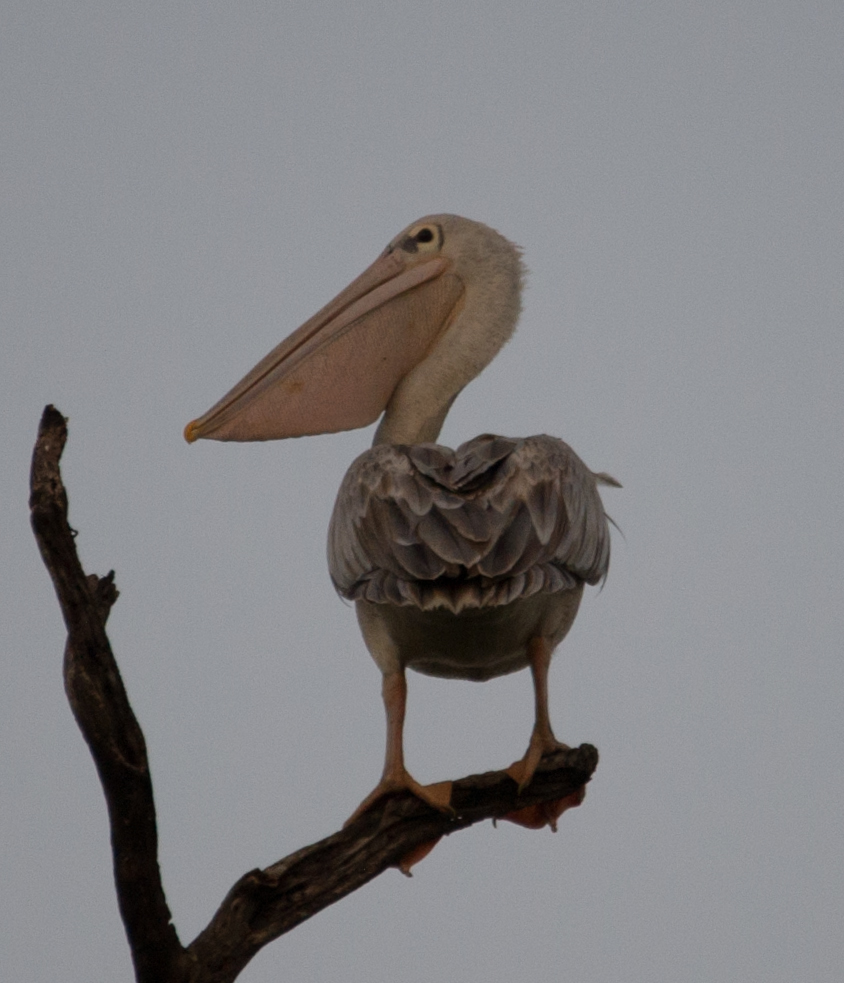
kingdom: Animalia
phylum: Chordata
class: Aves
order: Pelecaniformes
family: Pelecanidae
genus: Pelecanus
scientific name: Pelecanus rufescens
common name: Pink-backed pelican
